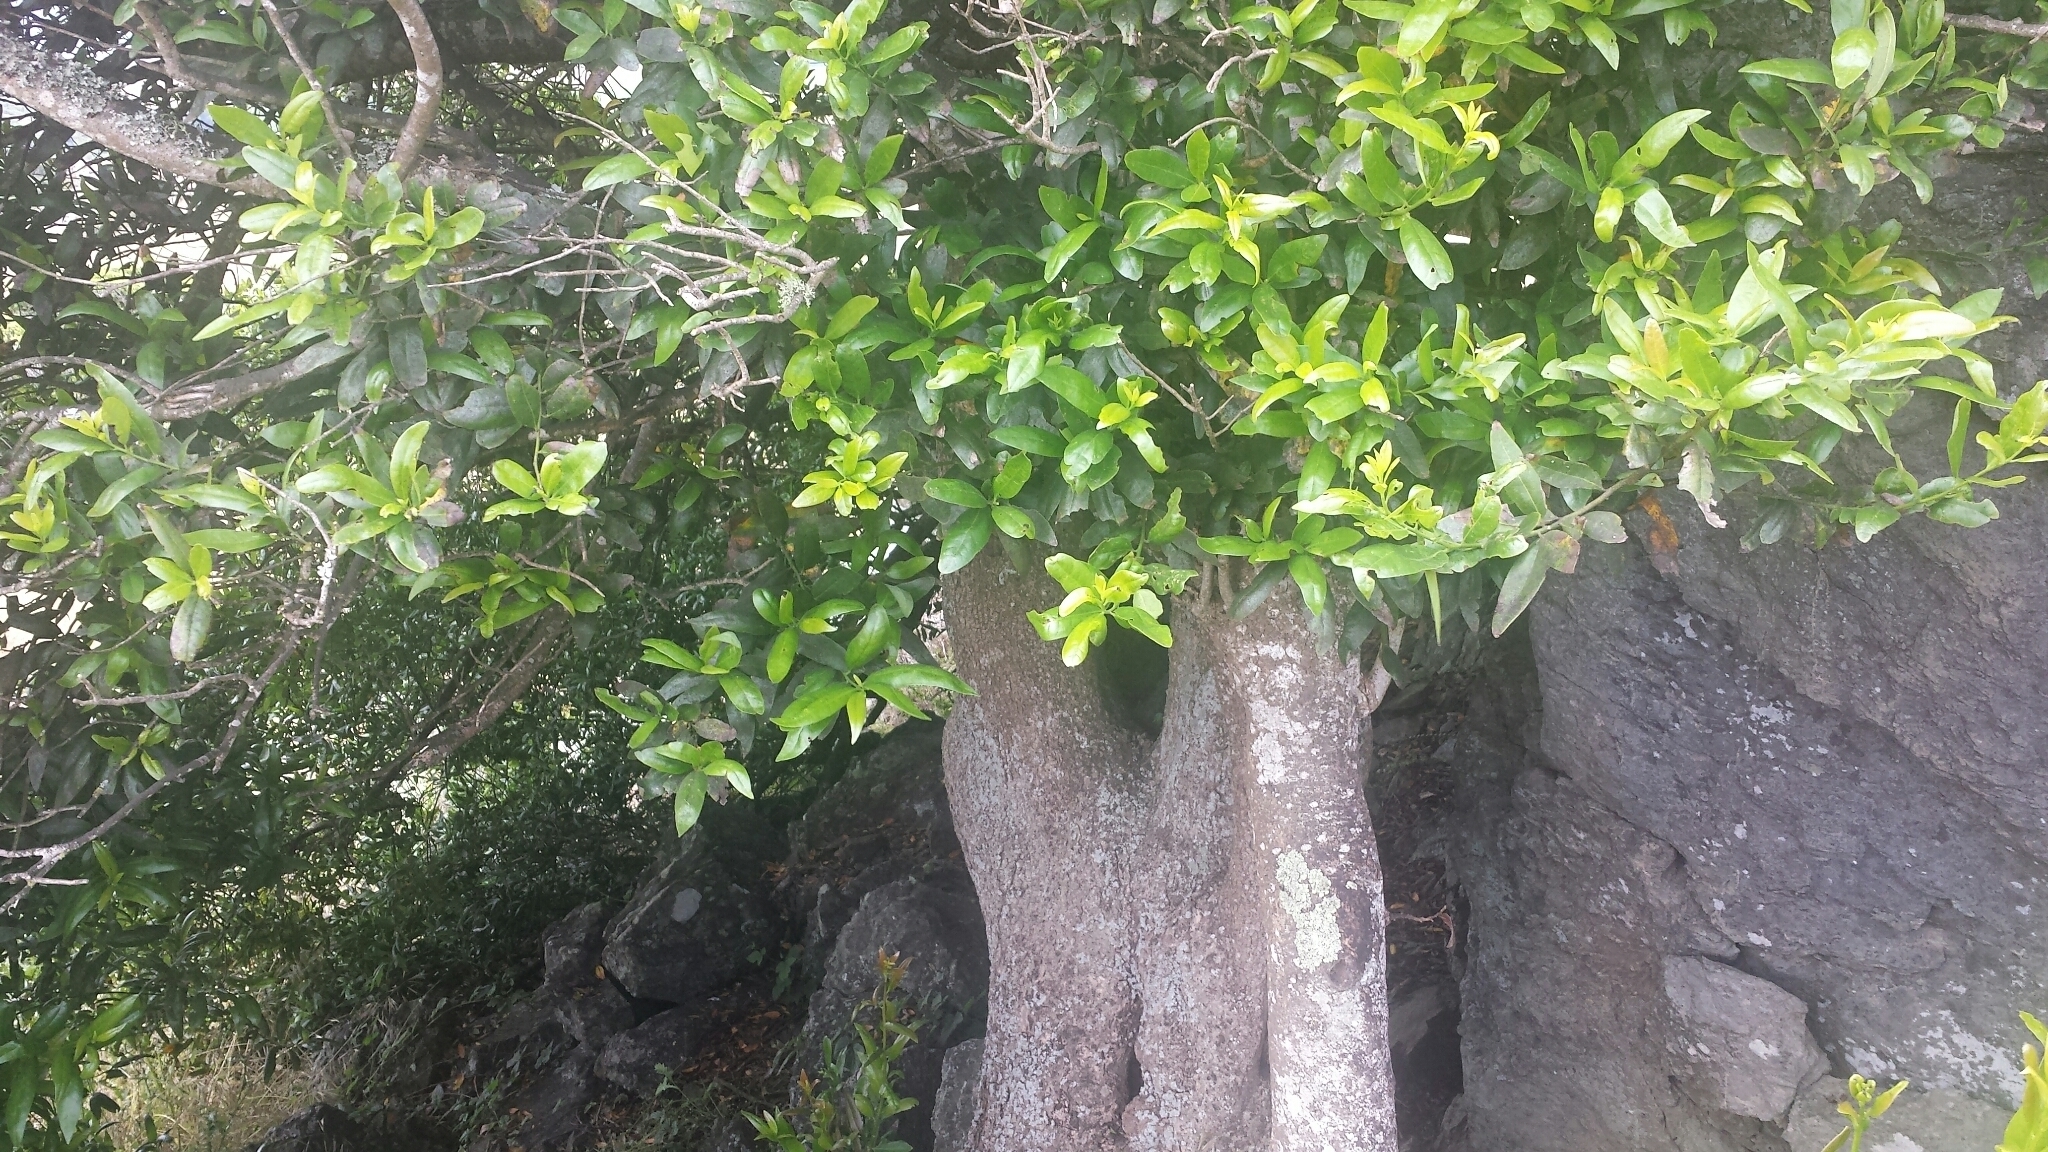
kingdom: Plantae
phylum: Tracheophyta
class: Magnoliopsida
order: Laurales
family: Lauraceae
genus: Umbellularia
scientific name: Umbellularia californica
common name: California bay
